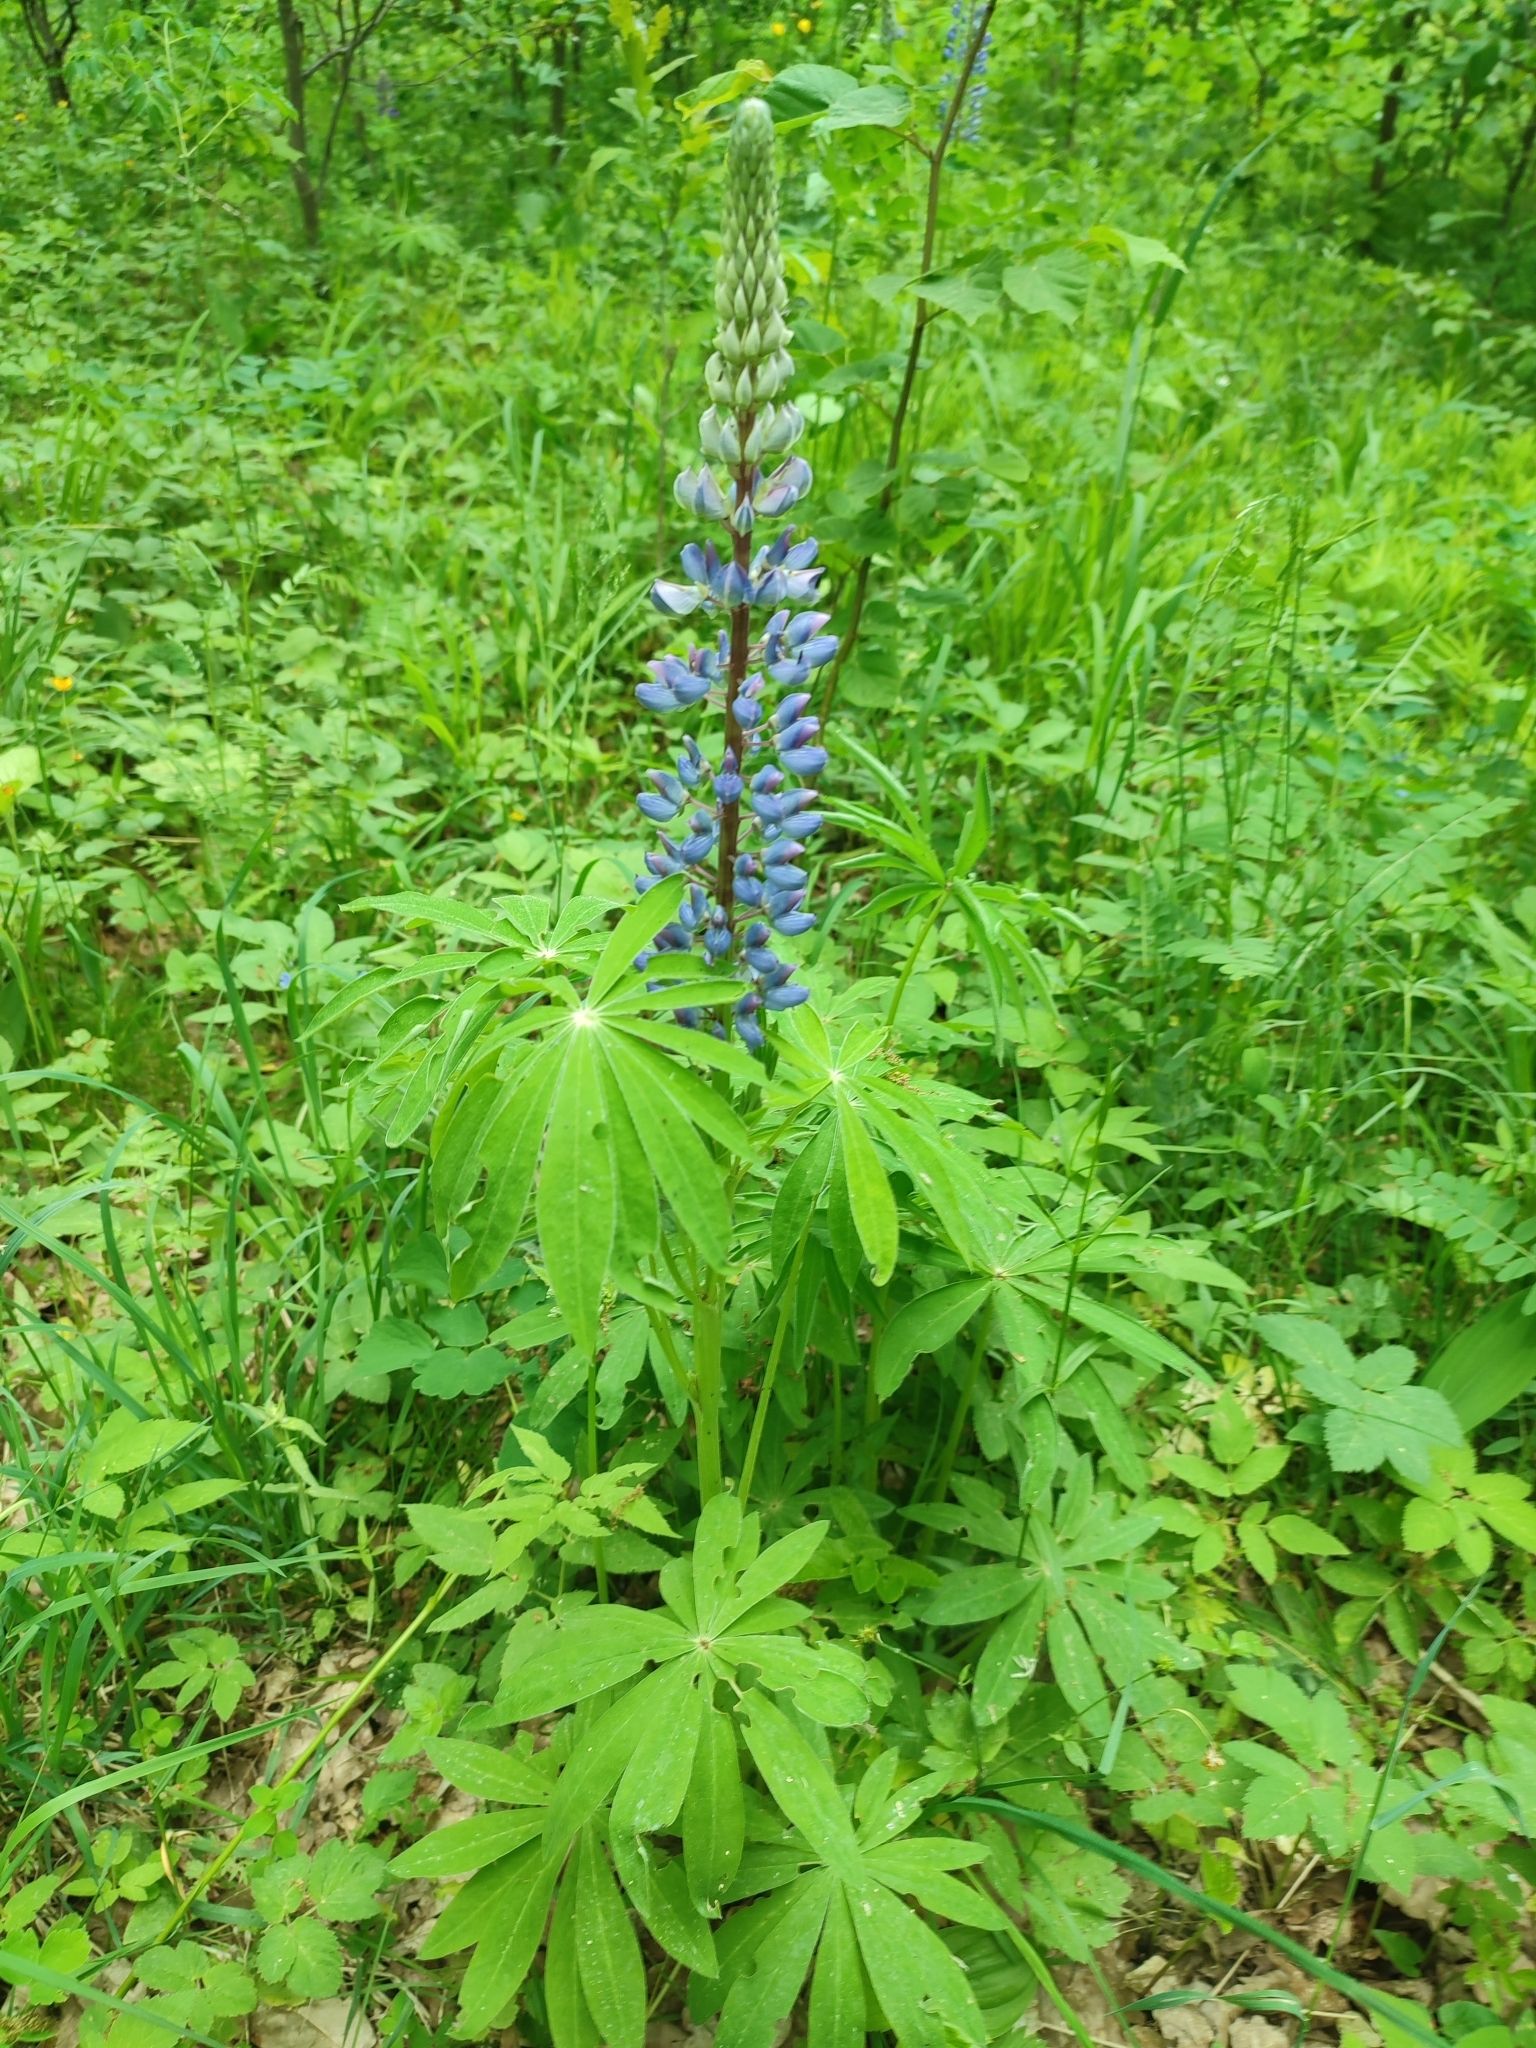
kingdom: Plantae
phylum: Tracheophyta
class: Magnoliopsida
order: Fabales
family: Fabaceae
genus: Lupinus
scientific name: Lupinus polyphyllus
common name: Garden lupin
